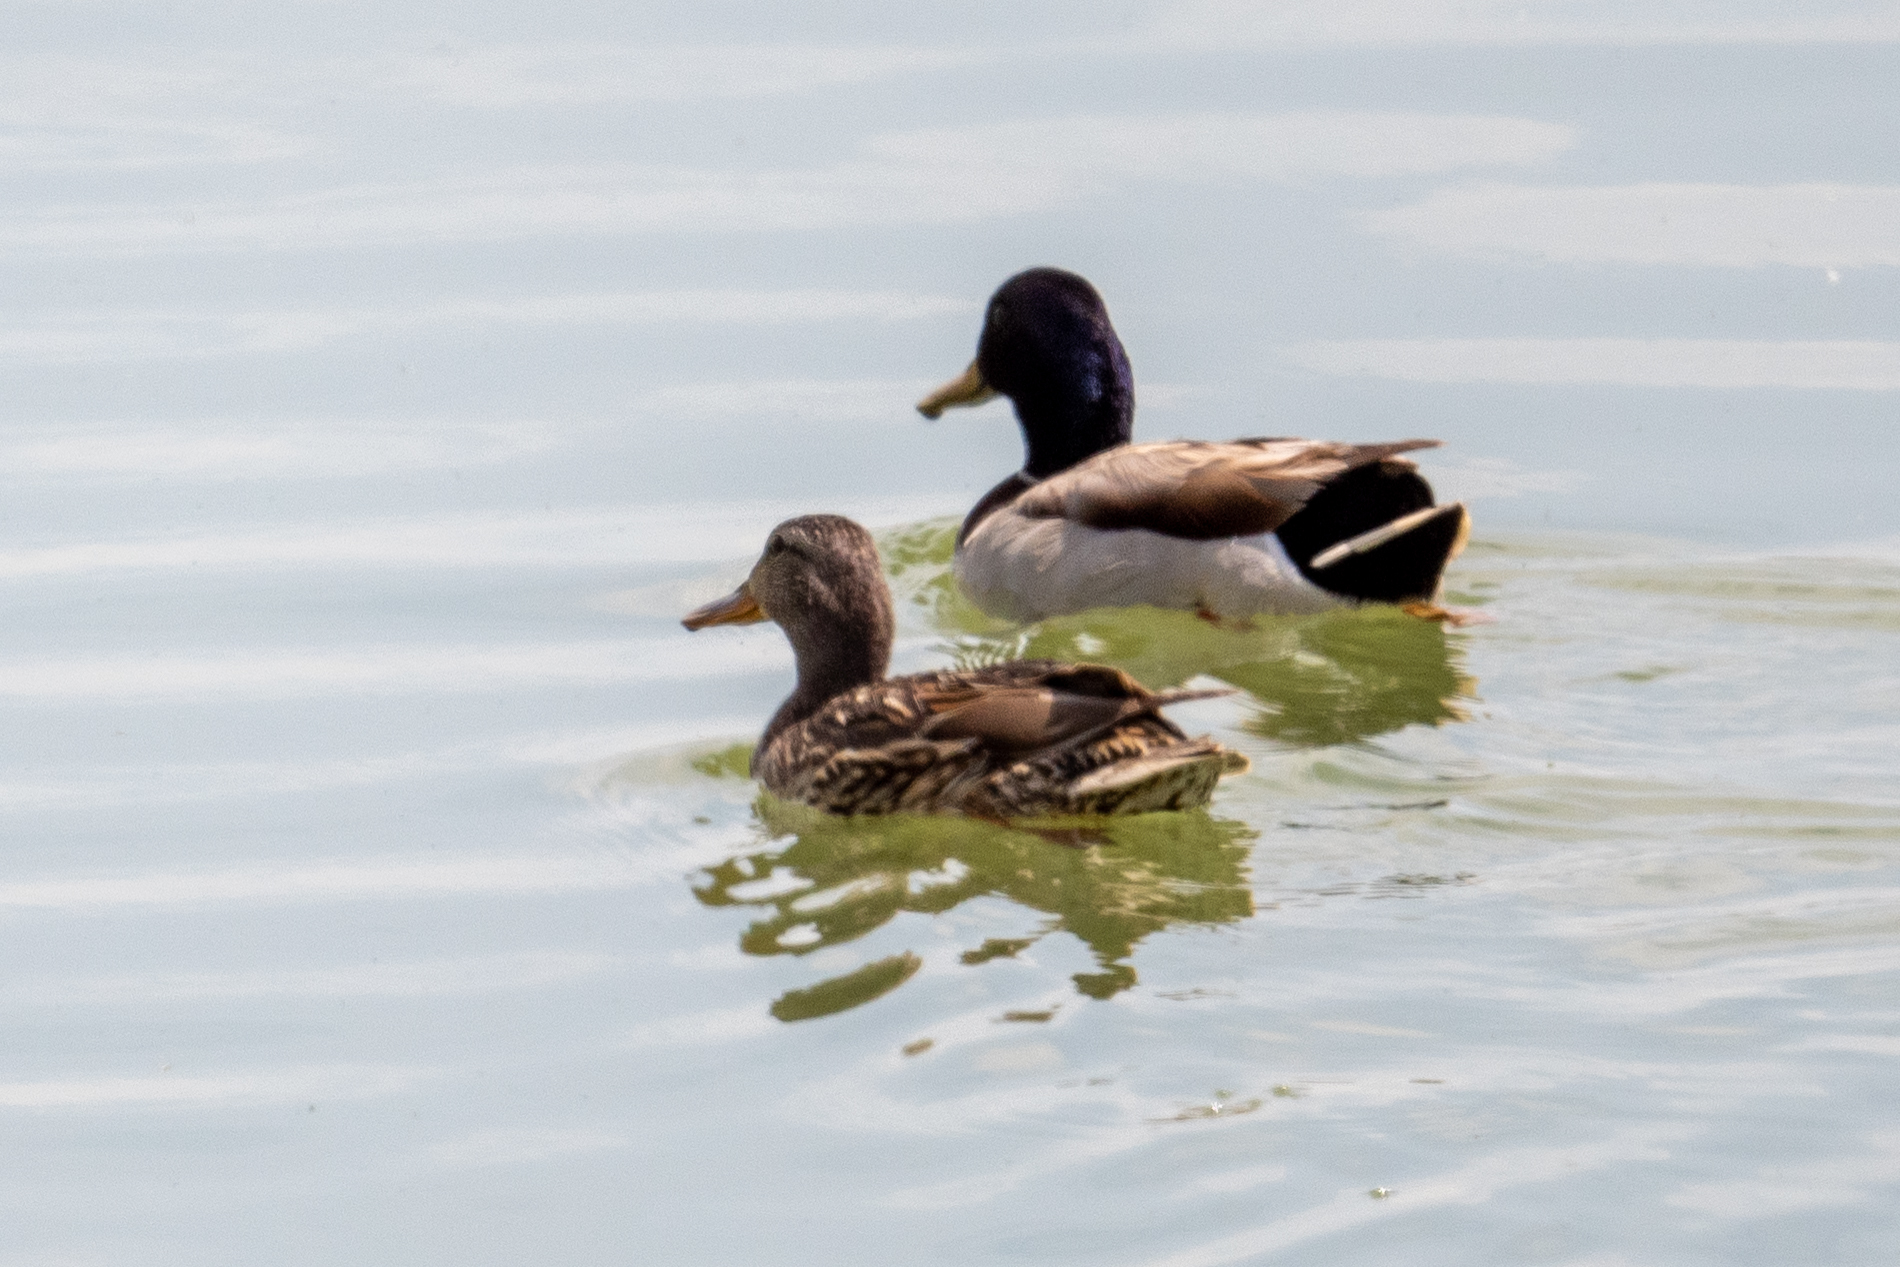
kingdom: Animalia
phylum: Chordata
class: Aves
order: Anseriformes
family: Anatidae
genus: Anas
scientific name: Anas platyrhynchos
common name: Mallard
